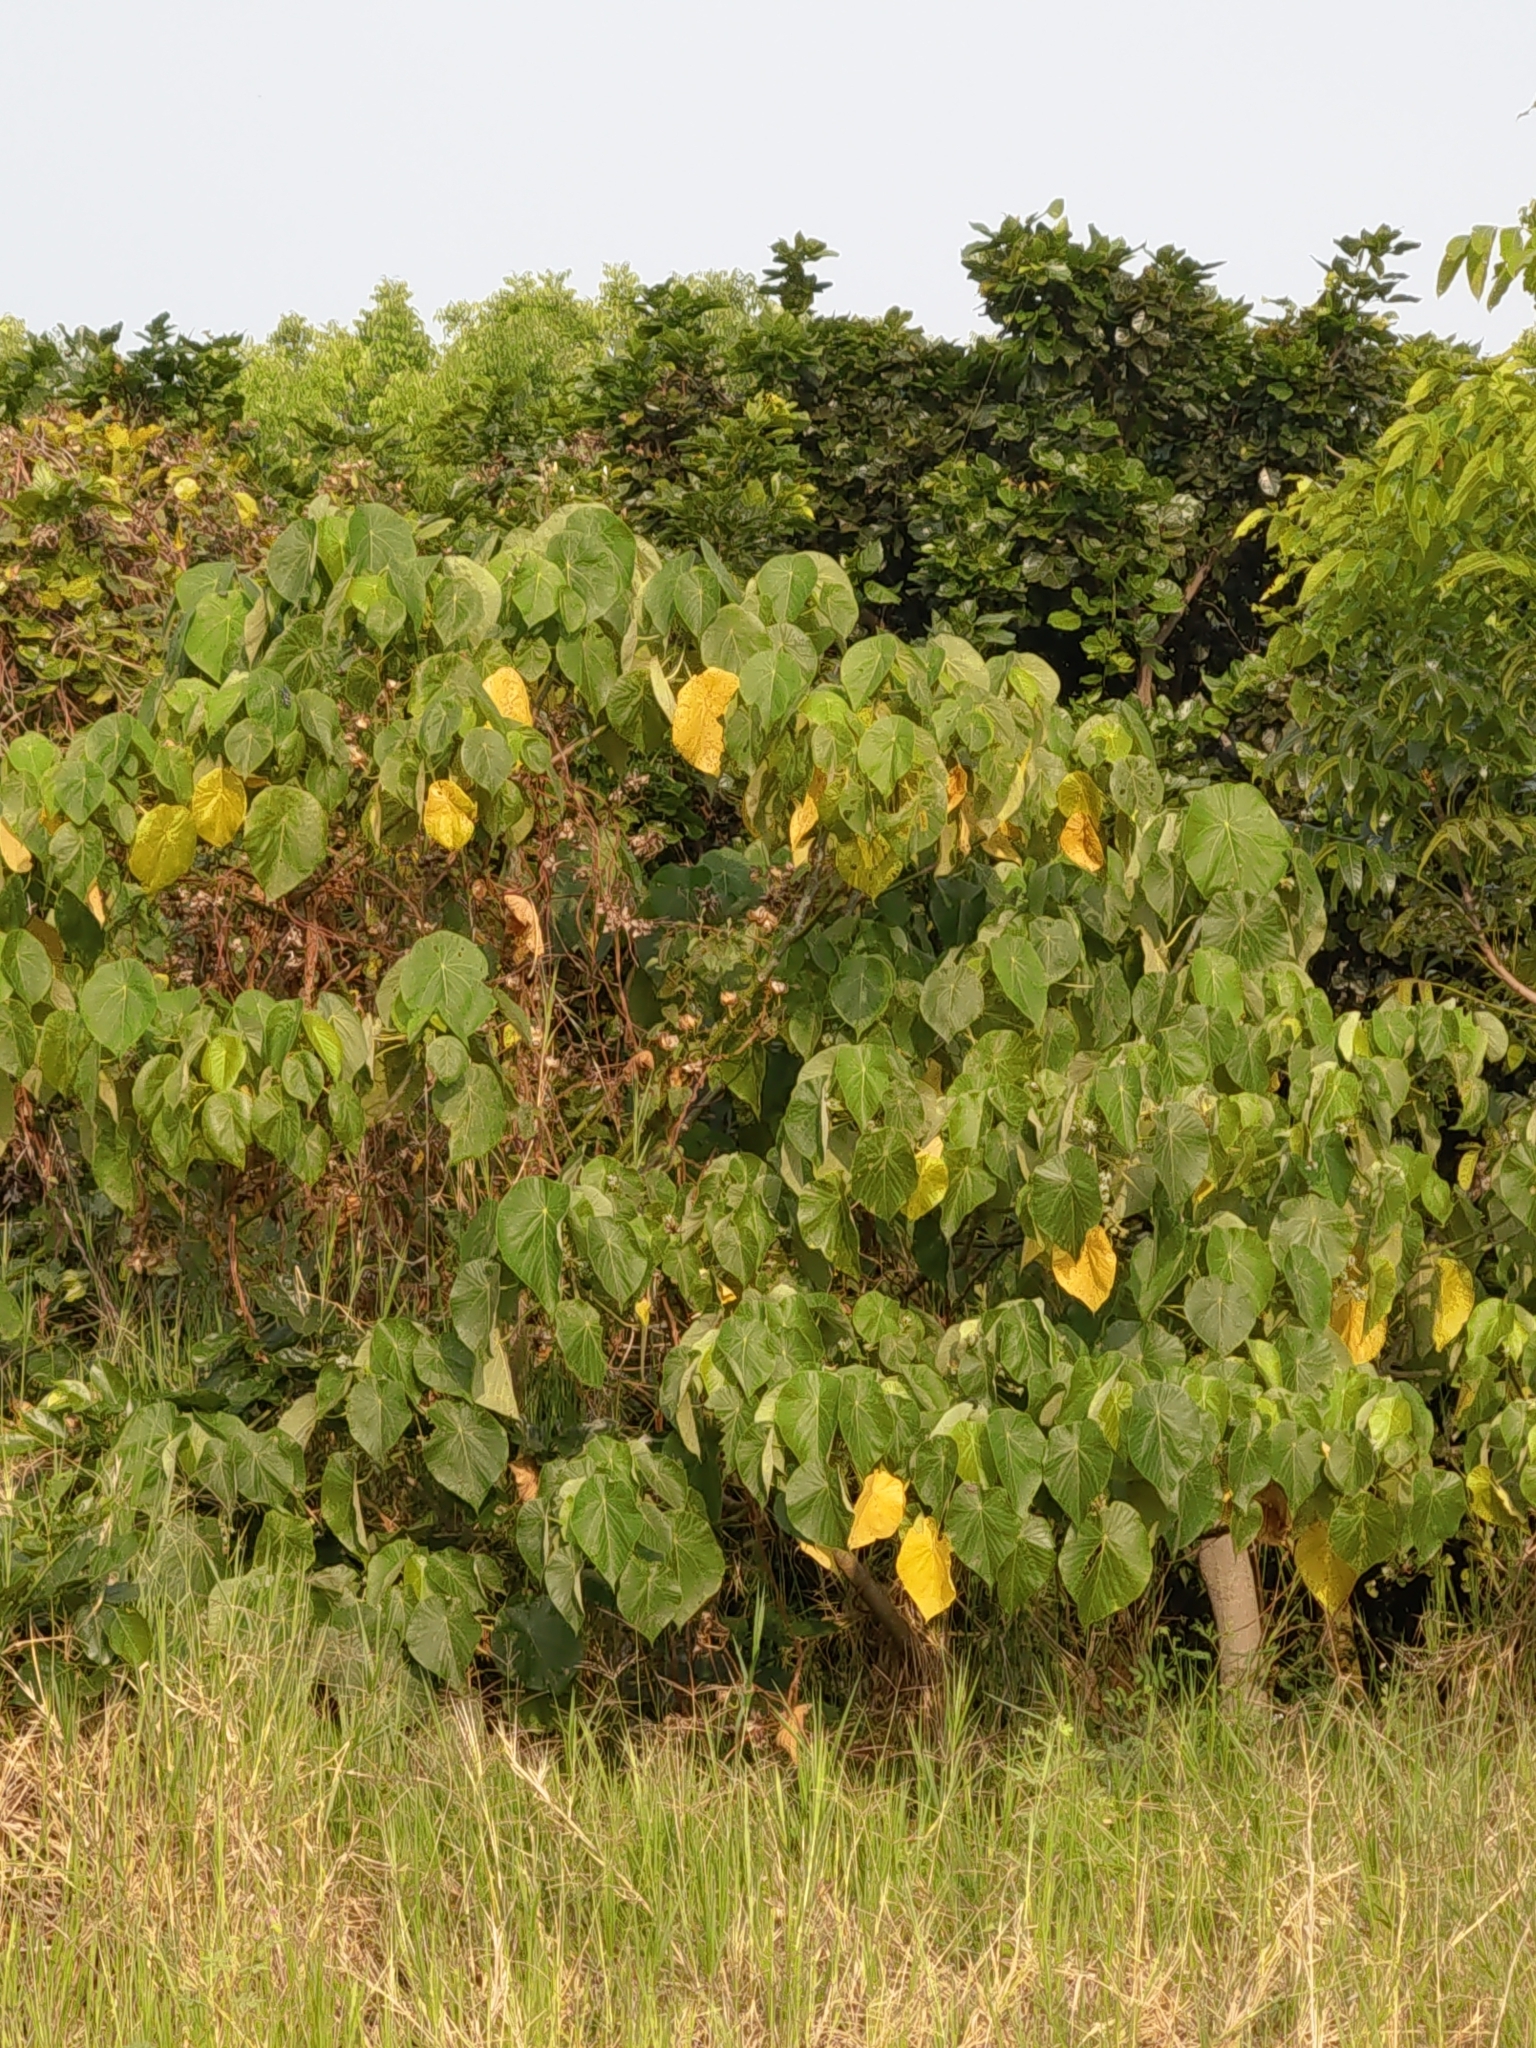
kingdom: Plantae
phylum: Tracheophyta
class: Magnoliopsida
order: Malpighiales
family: Euphorbiaceae
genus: Macaranga
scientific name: Macaranga tanarius
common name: Parasol leaf tree
